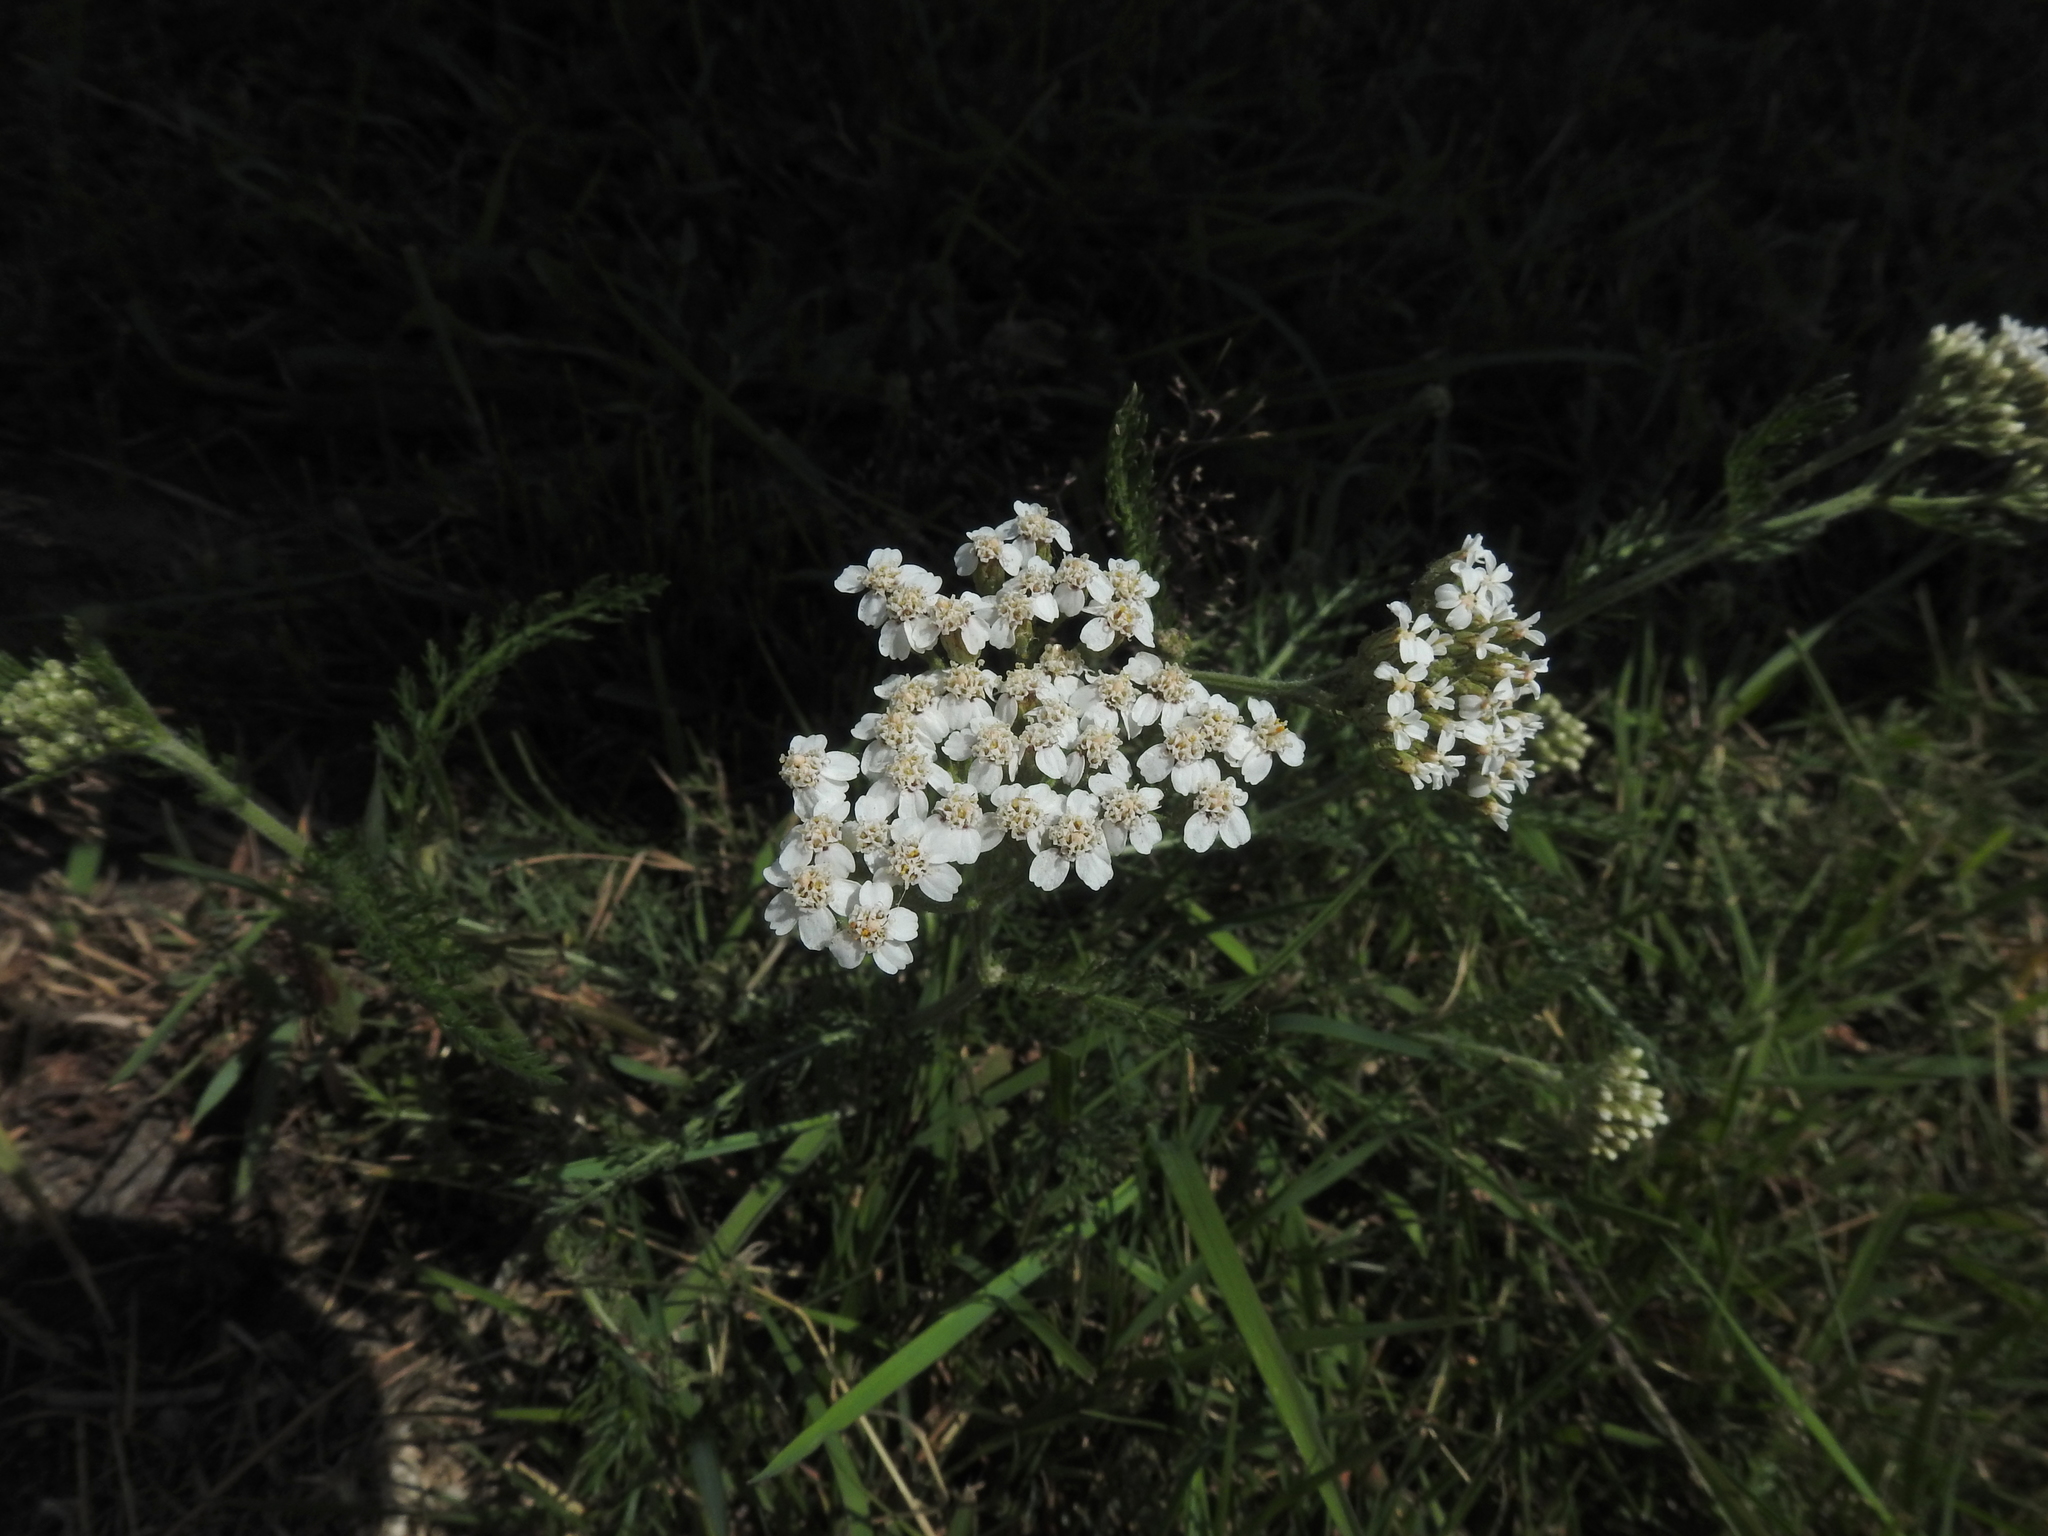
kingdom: Plantae
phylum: Tracheophyta
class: Magnoliopsida
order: Asterales
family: Asteraceae
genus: Achillea
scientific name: Achillea millefolium
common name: Yarrow
